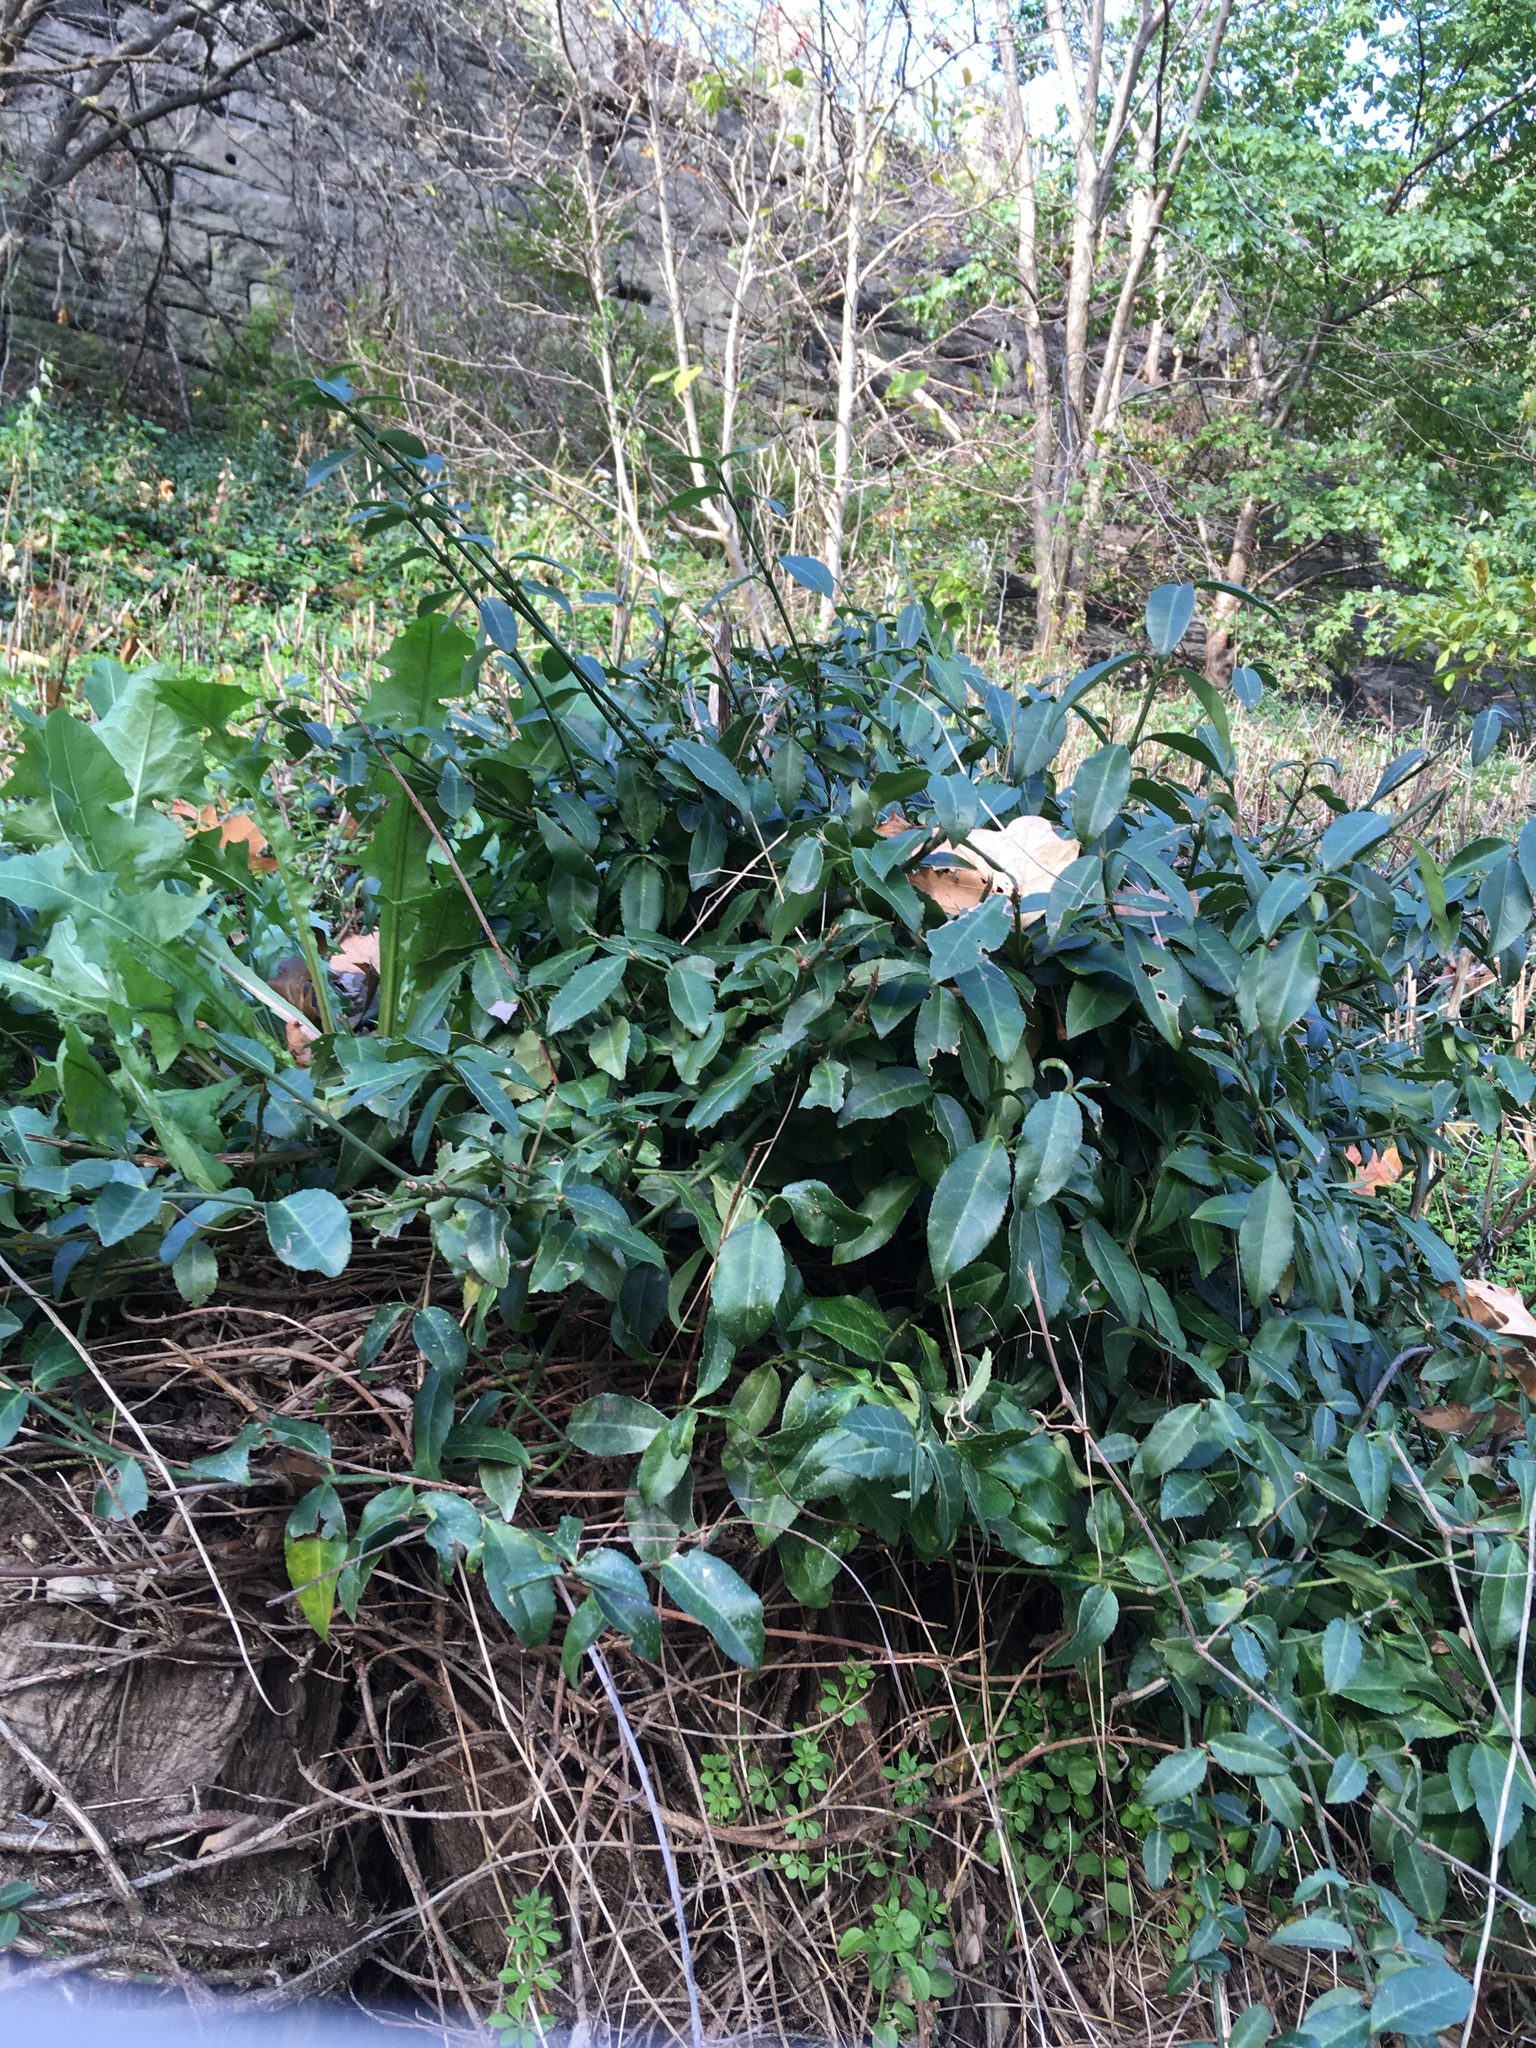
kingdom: Plantae
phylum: Tracheophyta
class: Magnoliopsida
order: Celastrales
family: Celastraceae
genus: Euonymus
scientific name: Euonymus fortunei
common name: Climbing euonymus
